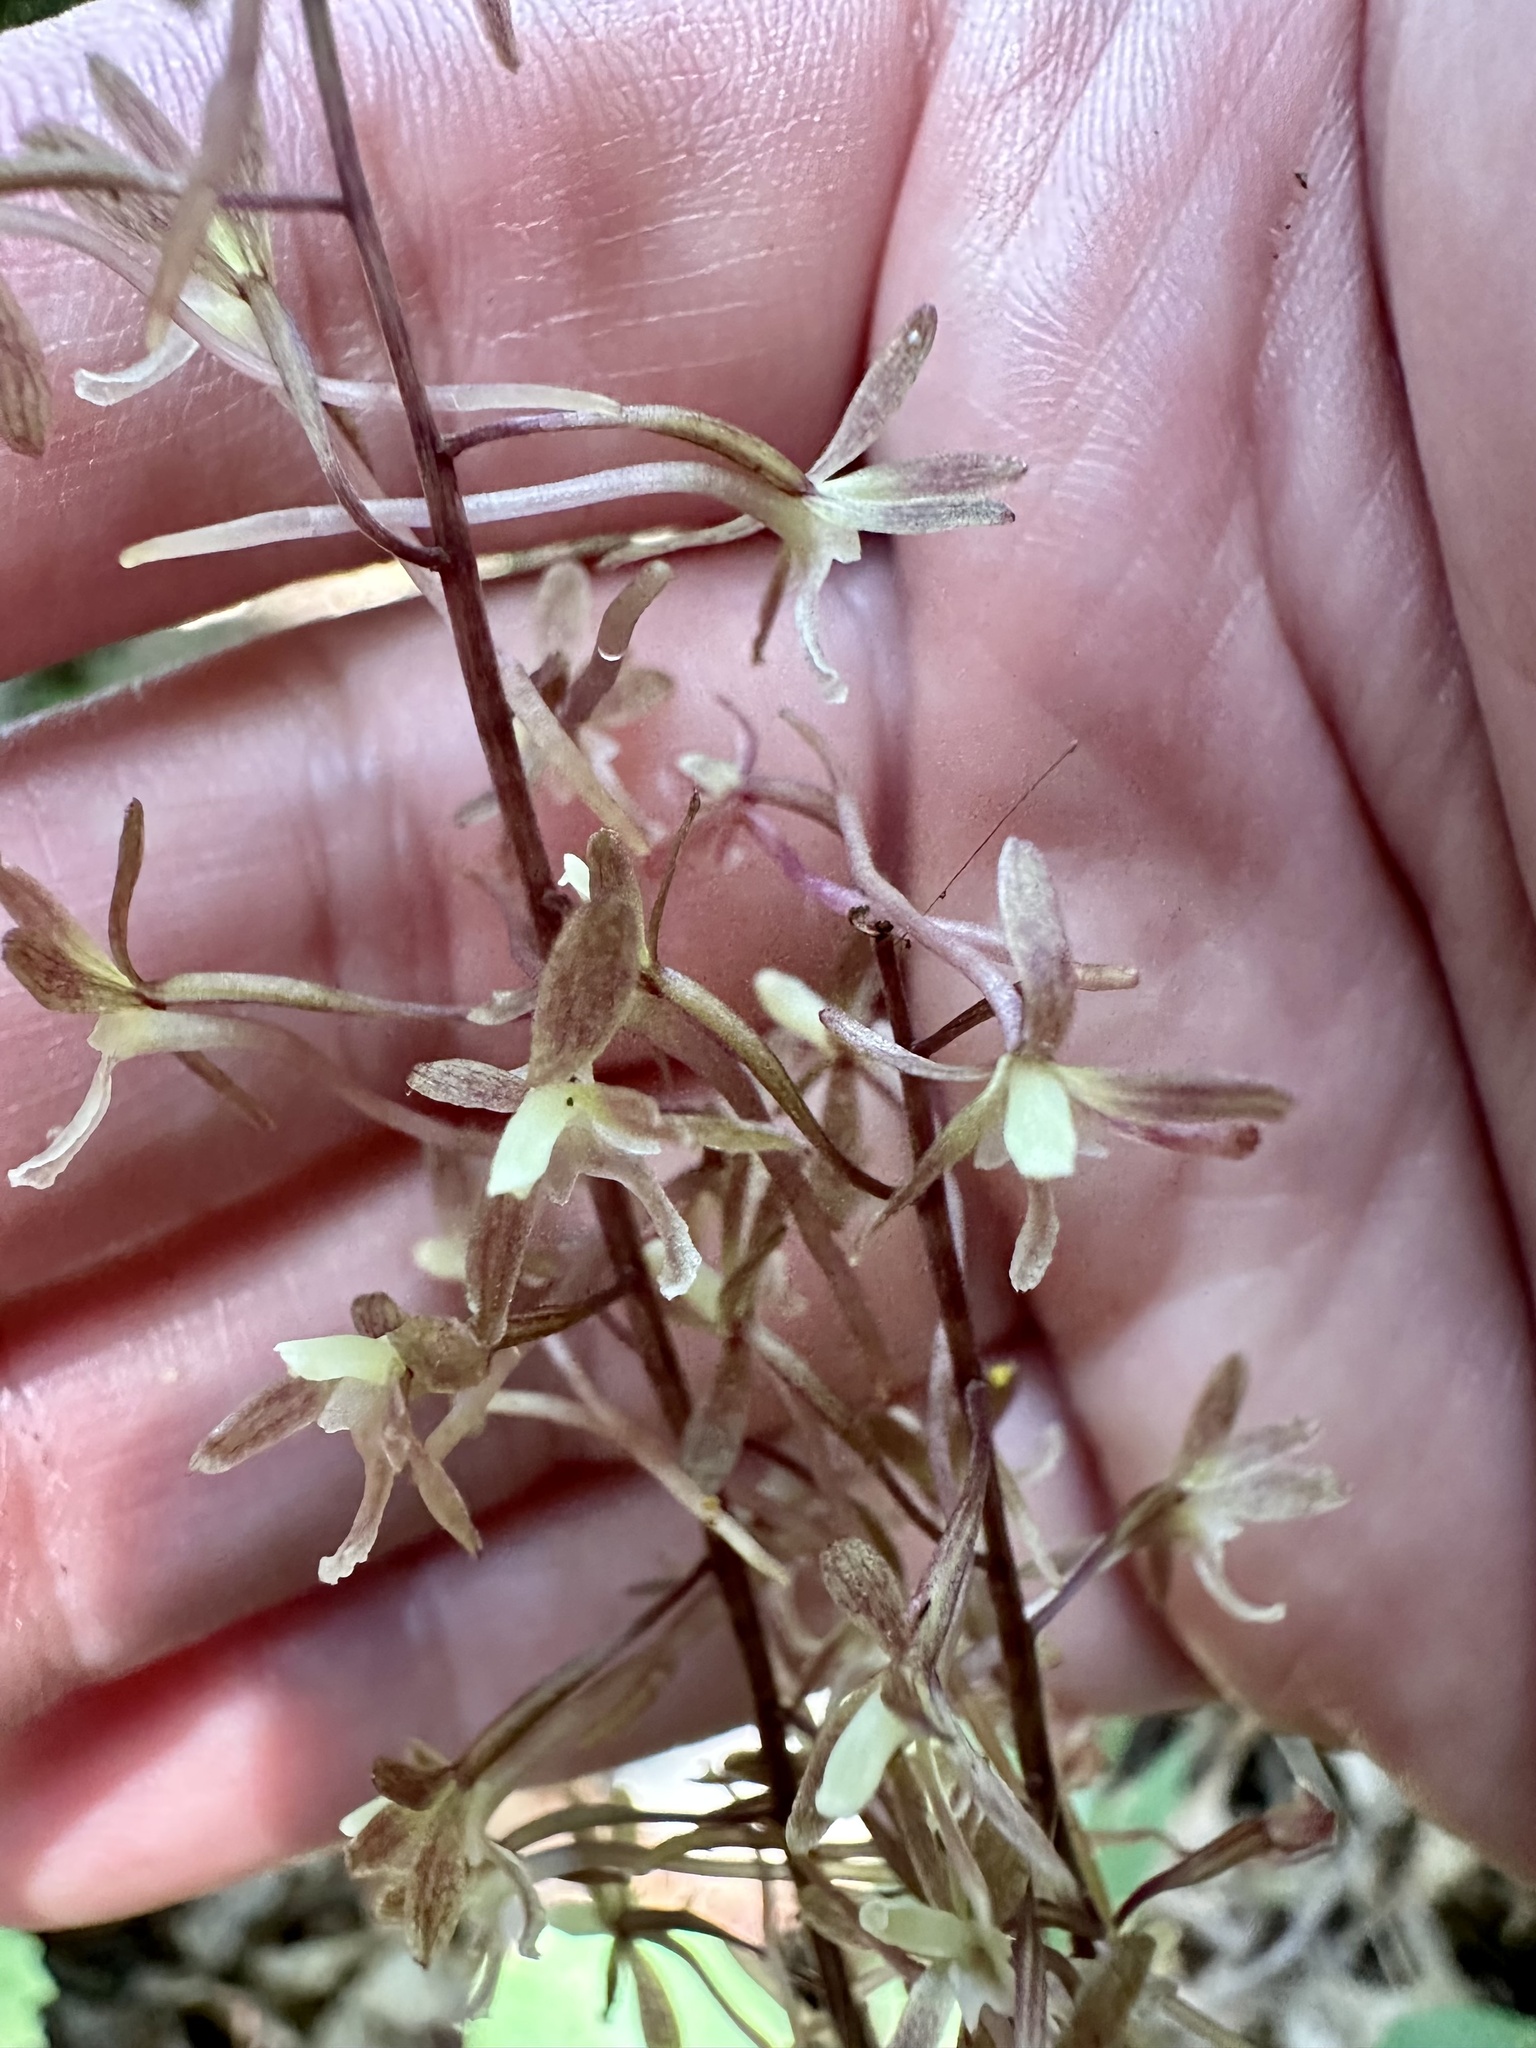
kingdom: Plantae
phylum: Tracheophyta
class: Liliopsida
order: Asparagales
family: Orchidaceae
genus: Tipularia
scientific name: Tipularia discolor
